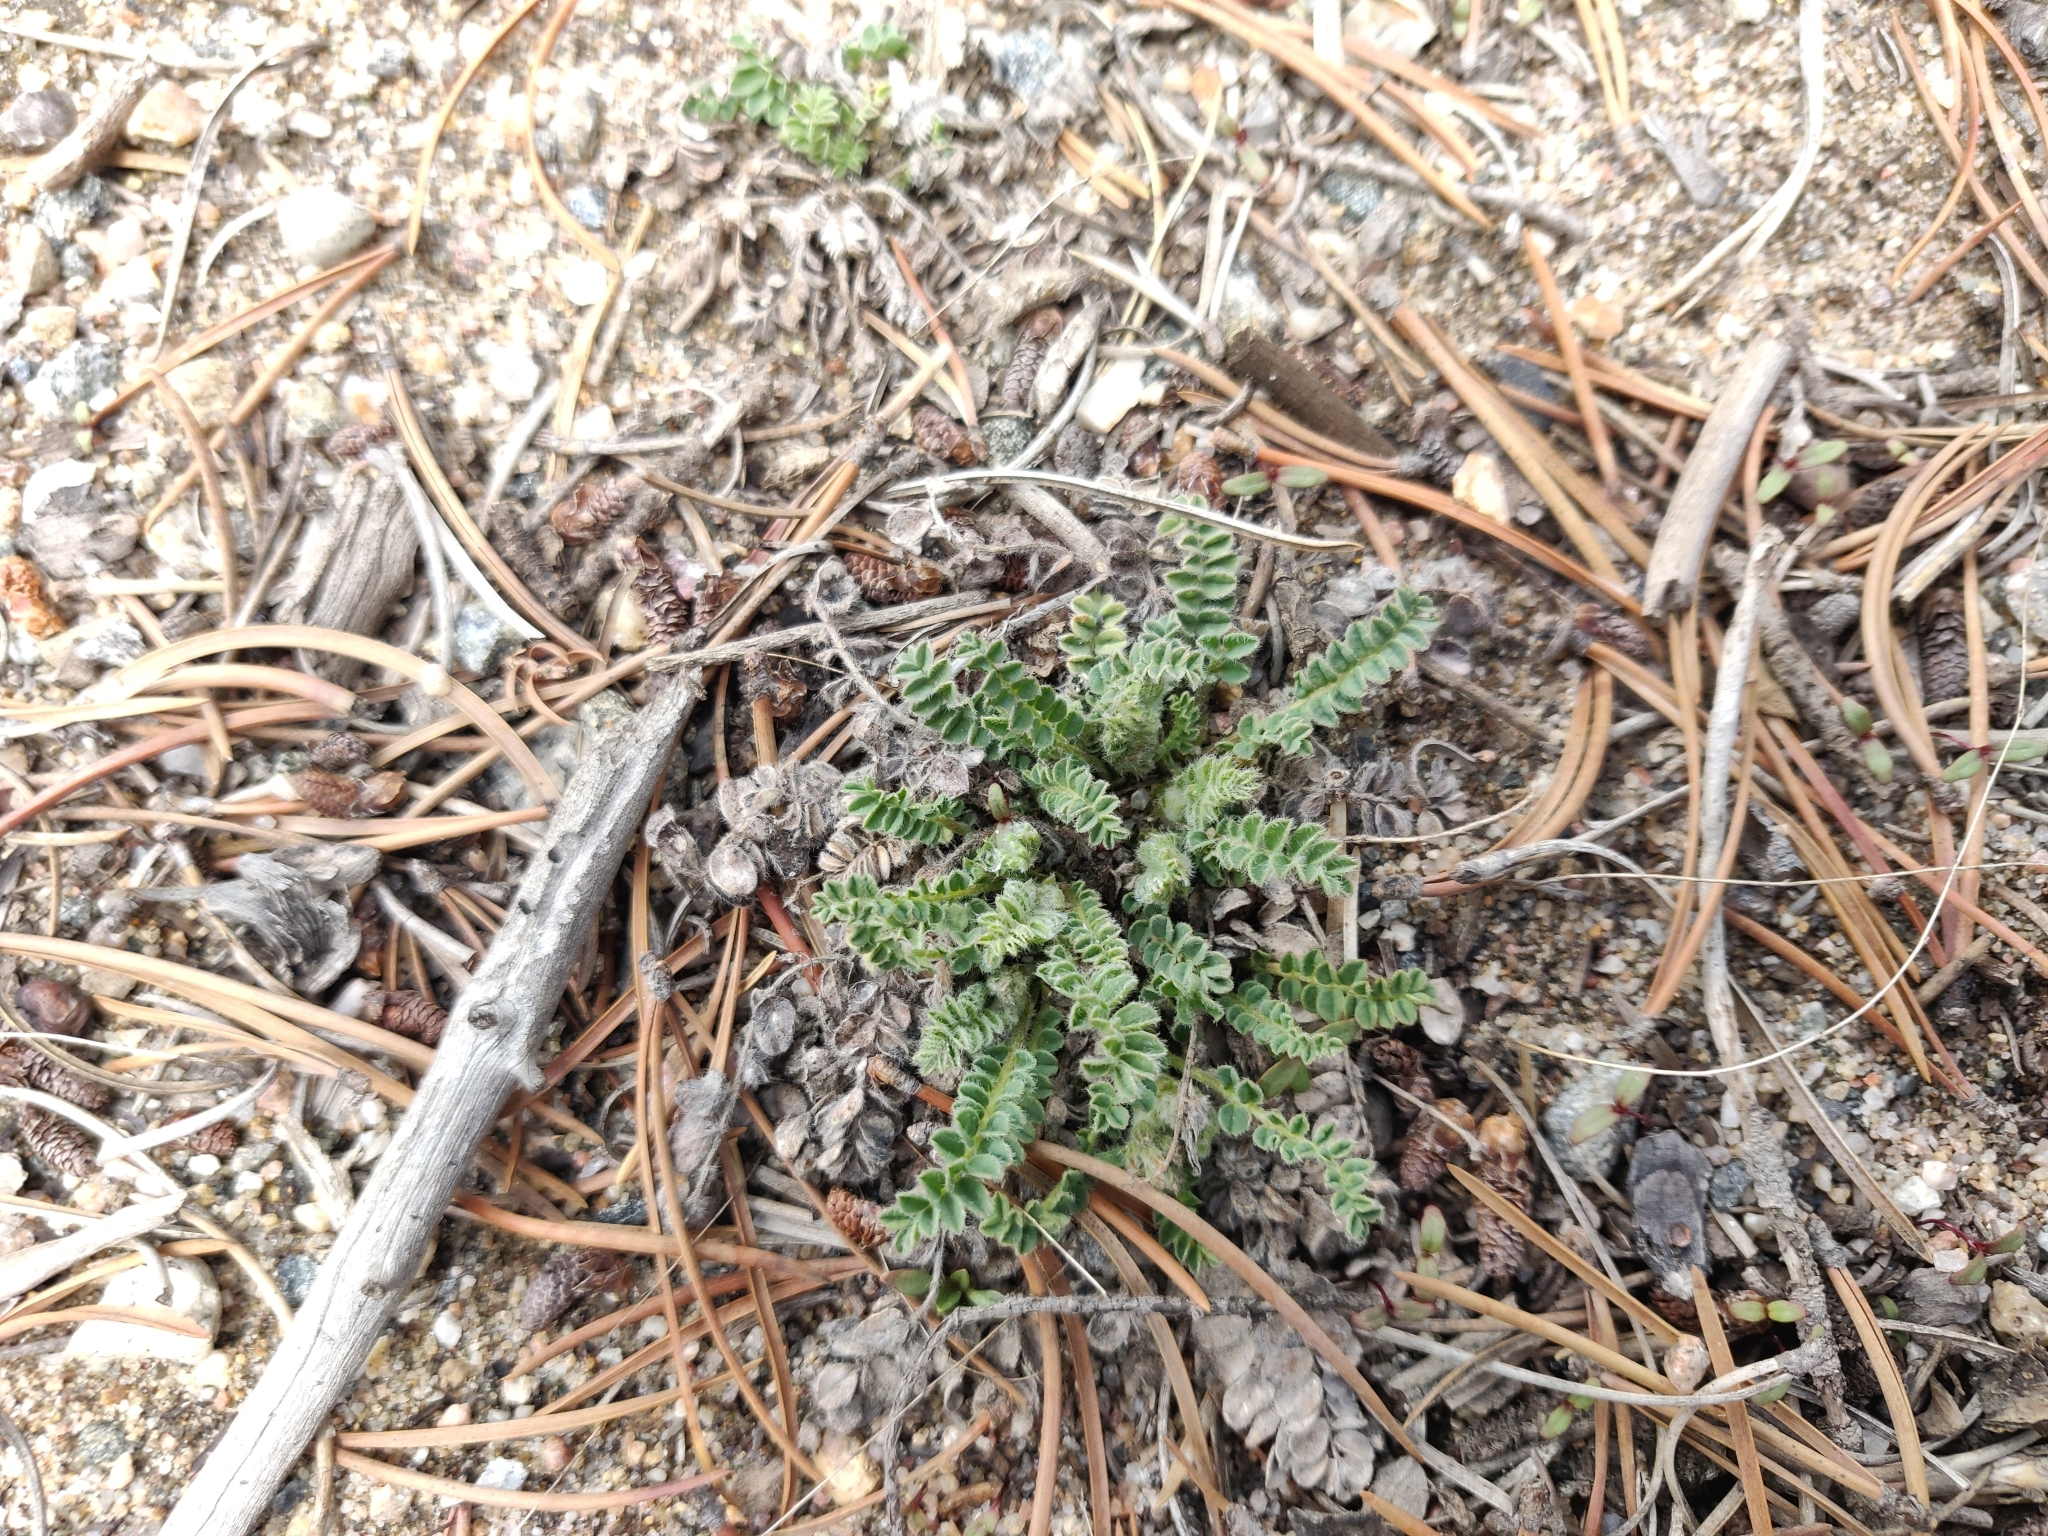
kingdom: Plantae
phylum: Tracheophyta
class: Magnoliopsida
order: Fabales
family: Fabaceae
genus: Astragalus
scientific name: Astragalus parryi
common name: Parry milk-vetch
